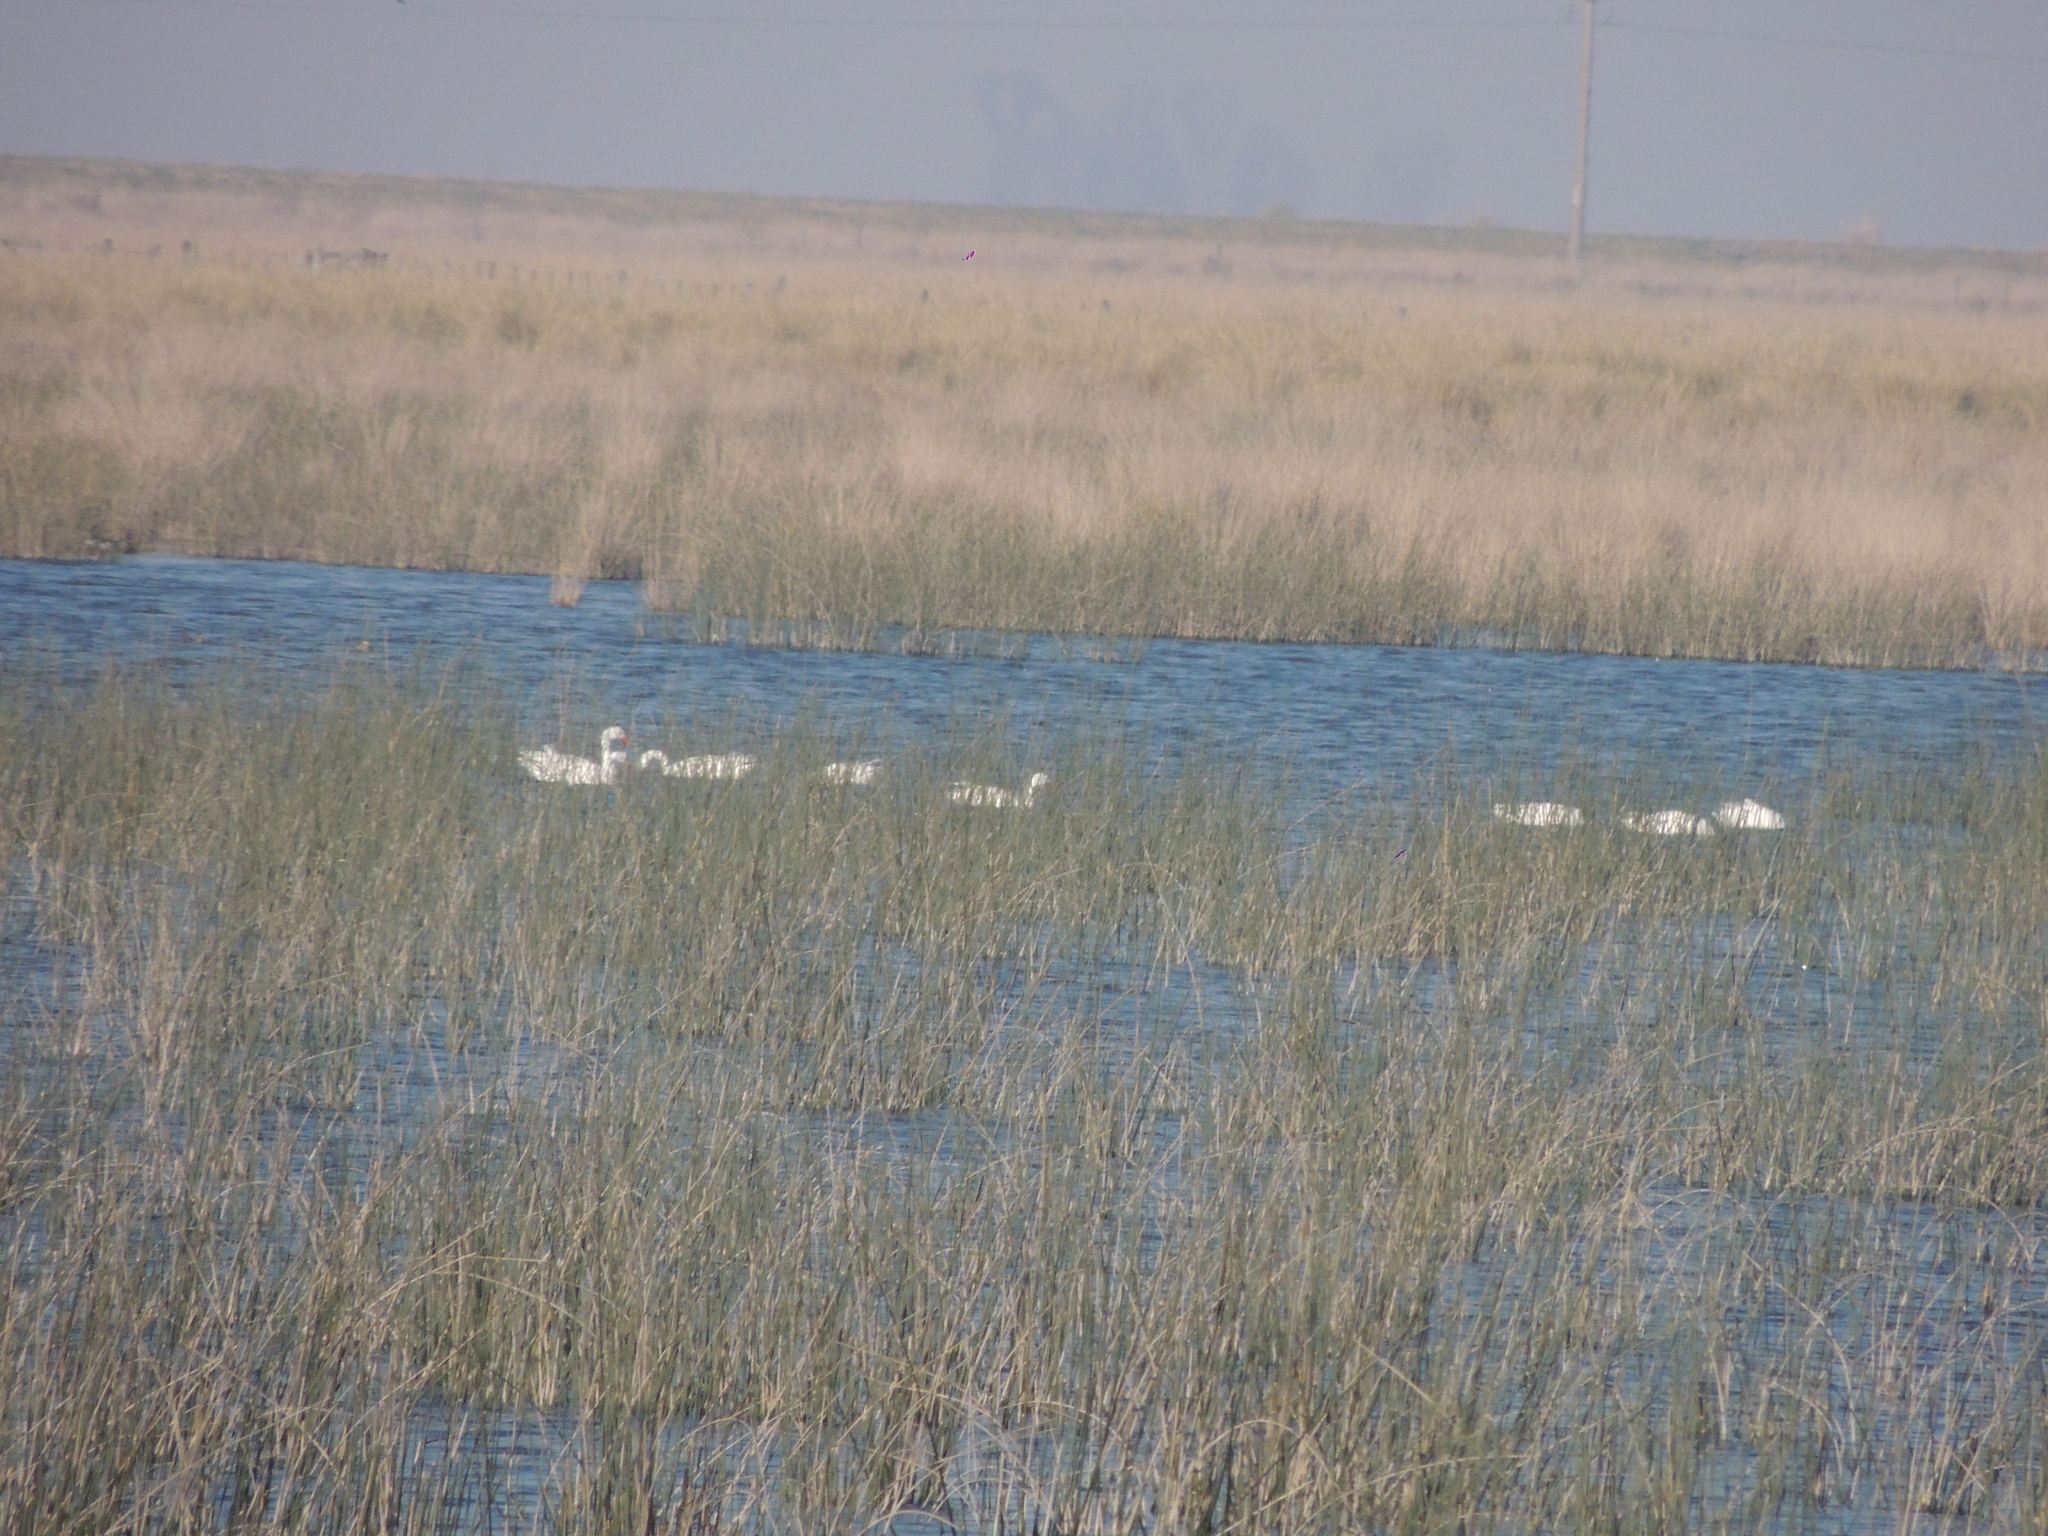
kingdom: Animalia
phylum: Chordata
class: Aves
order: Anseriformes
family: Anatidae
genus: Coscoroba
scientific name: Coscoroba coscoroba
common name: Coscoroba swan
